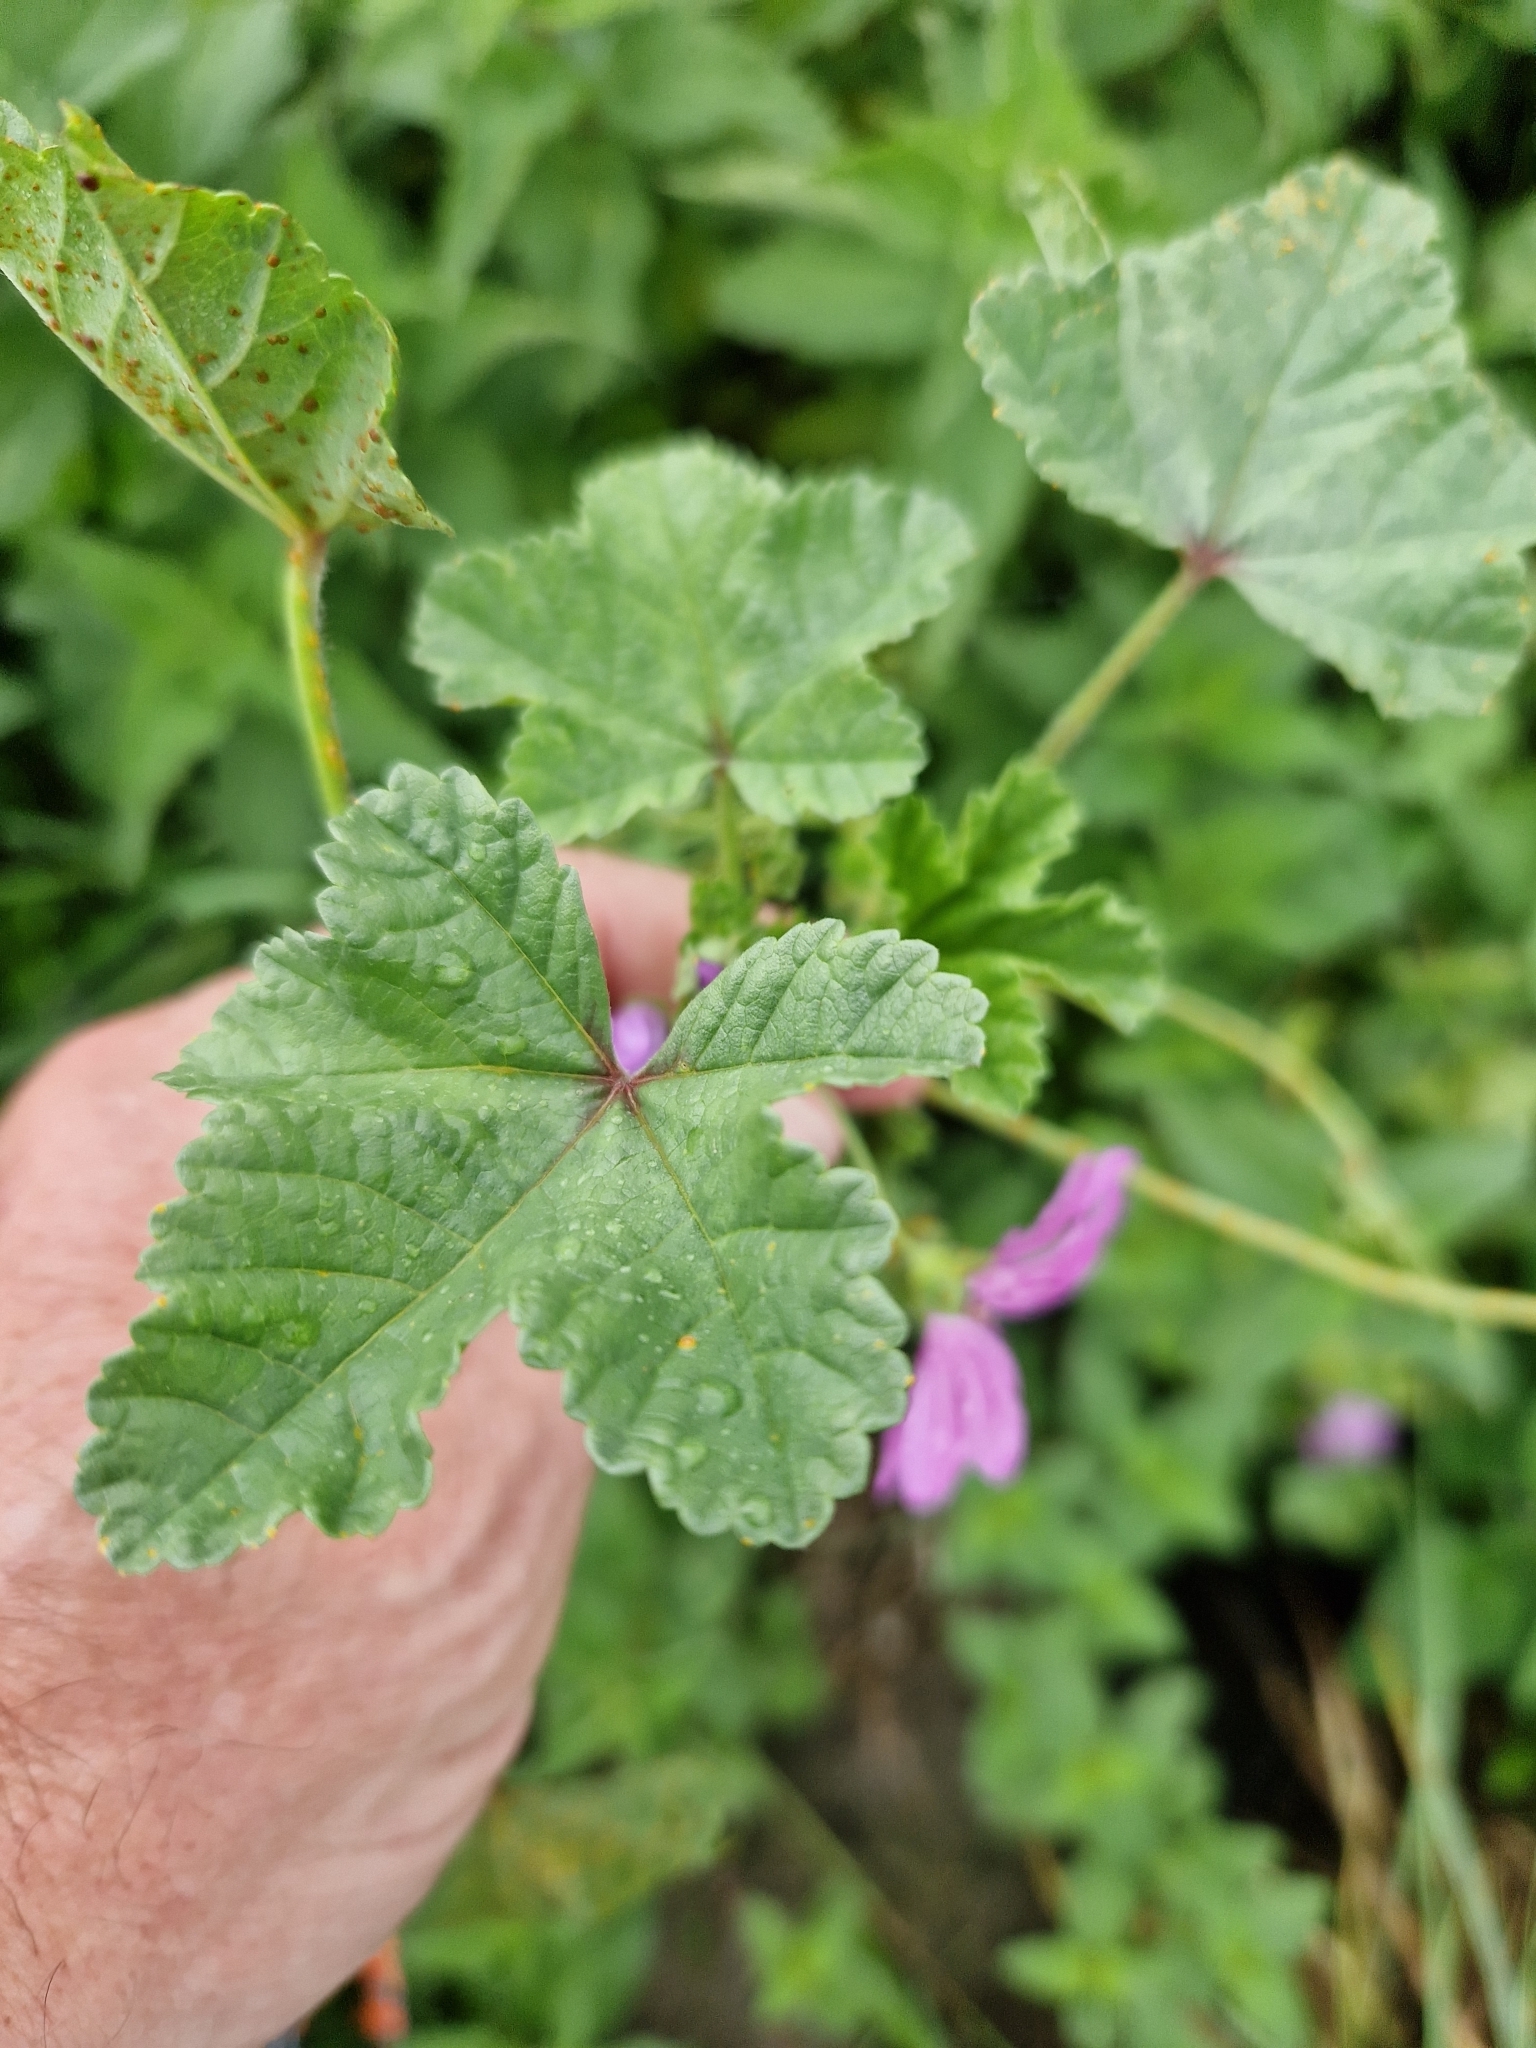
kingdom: Plantae
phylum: Tracheophyta
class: Magnoliopsida
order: Malvales
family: Malvaceae
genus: Malva
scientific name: Malva sylvestris
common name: Common mallow
